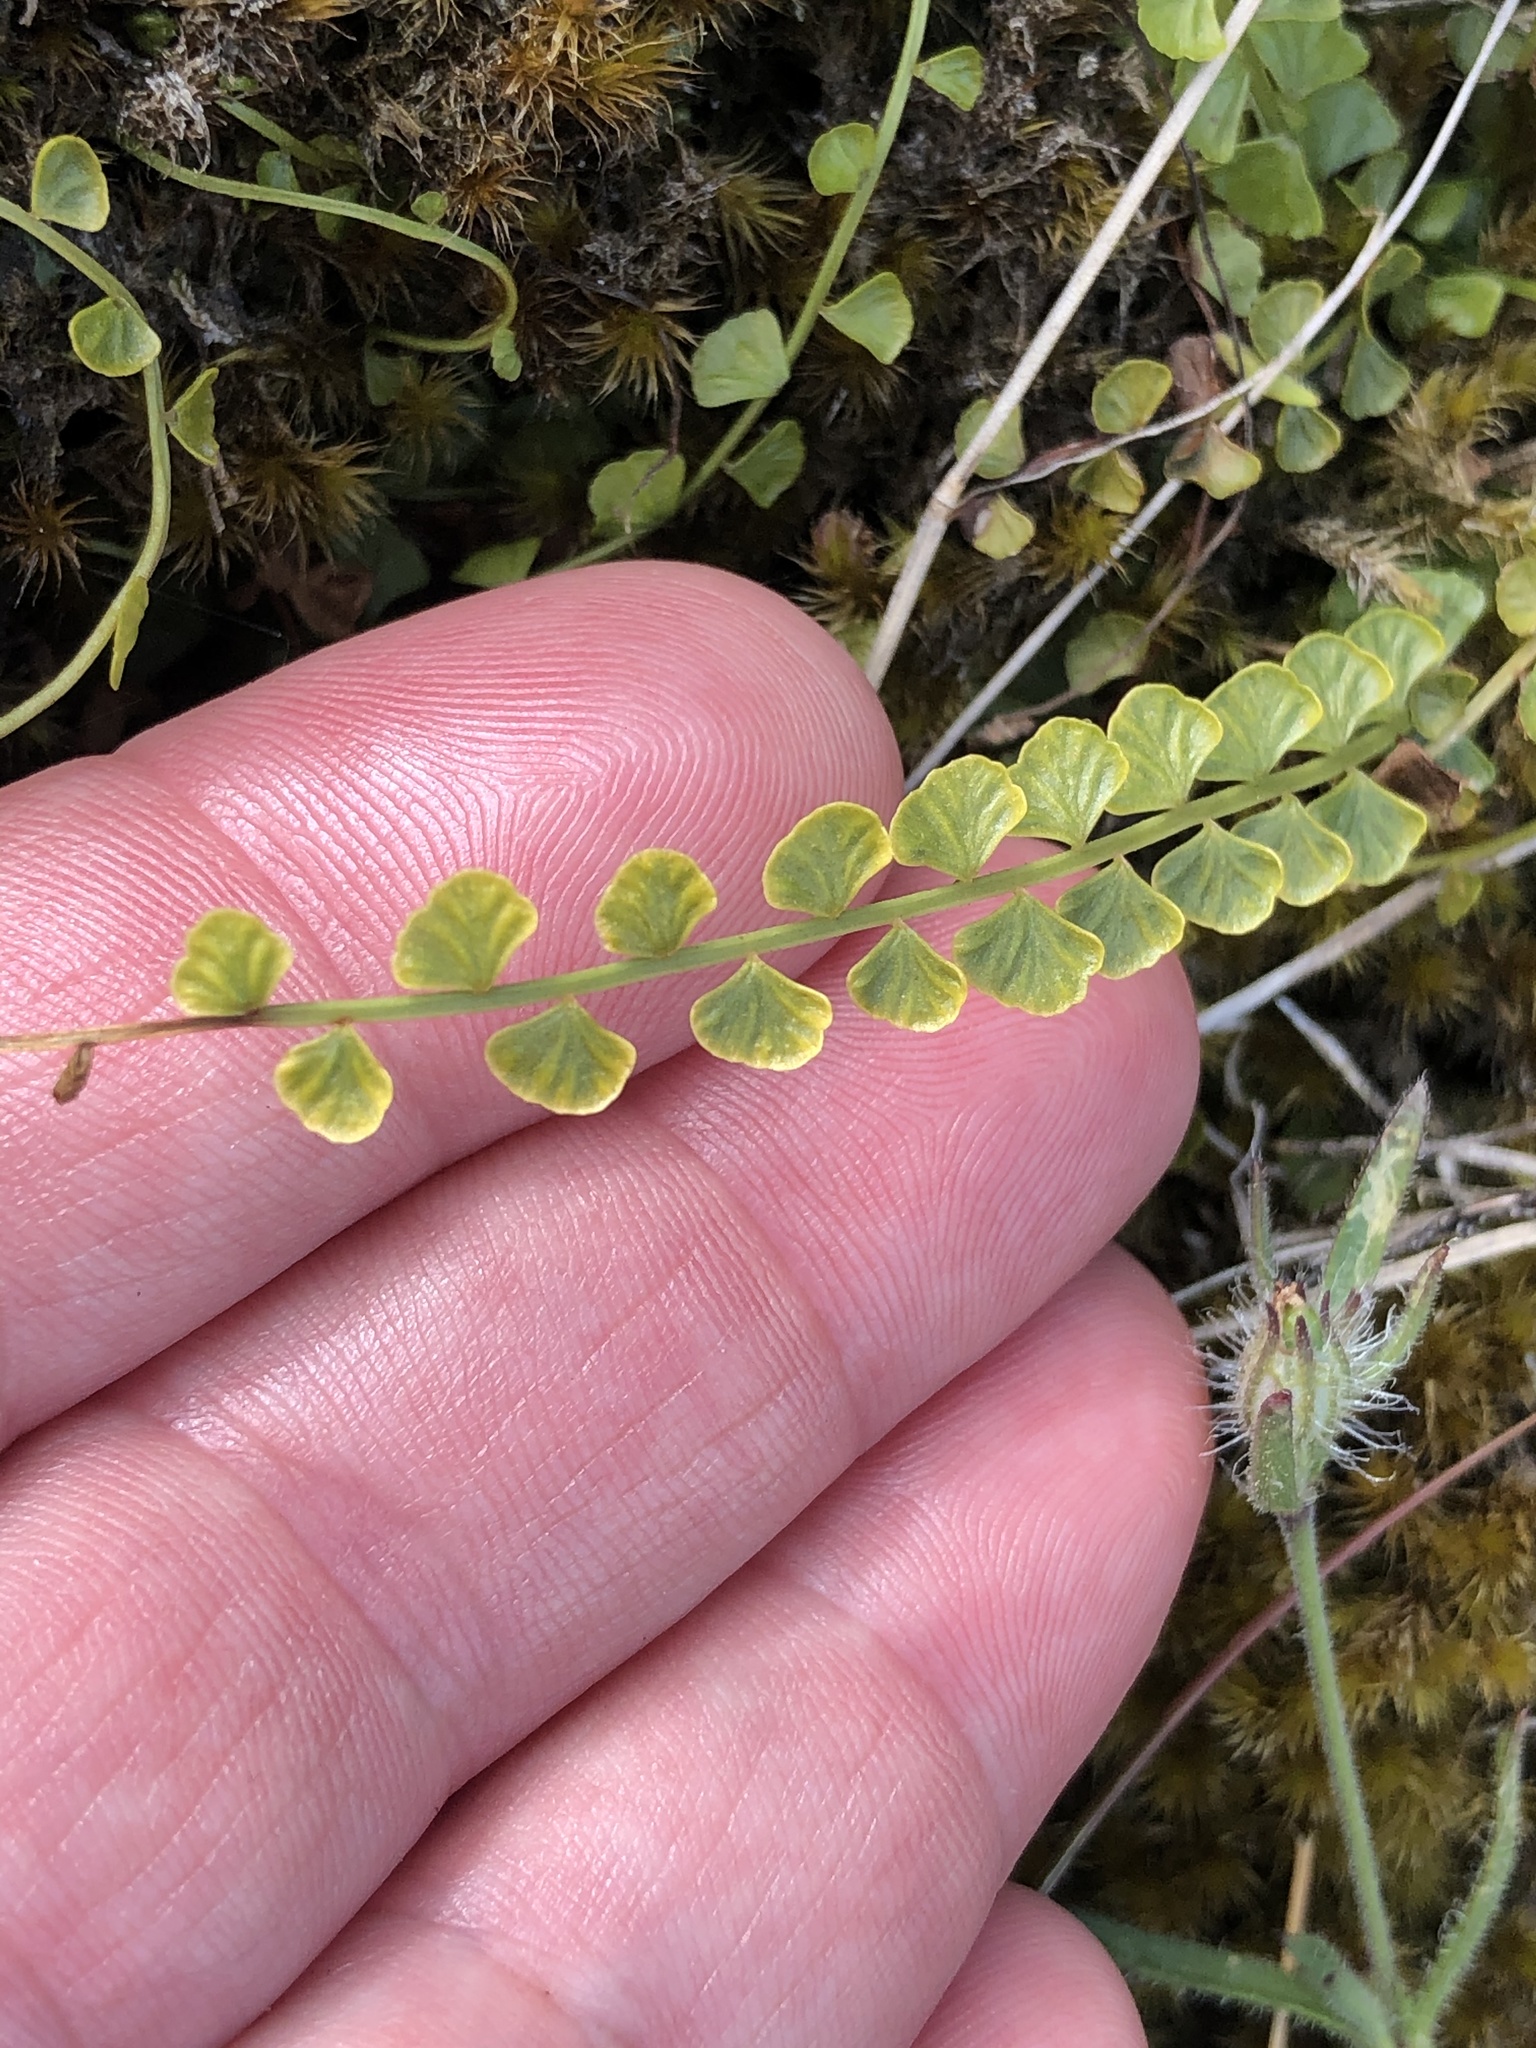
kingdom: Plantae
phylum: Tracheophyta
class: Polypodiopsida
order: Polypodiales
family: Aspleniaceae
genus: Asplenium
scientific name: Asplenium flabellifolium
